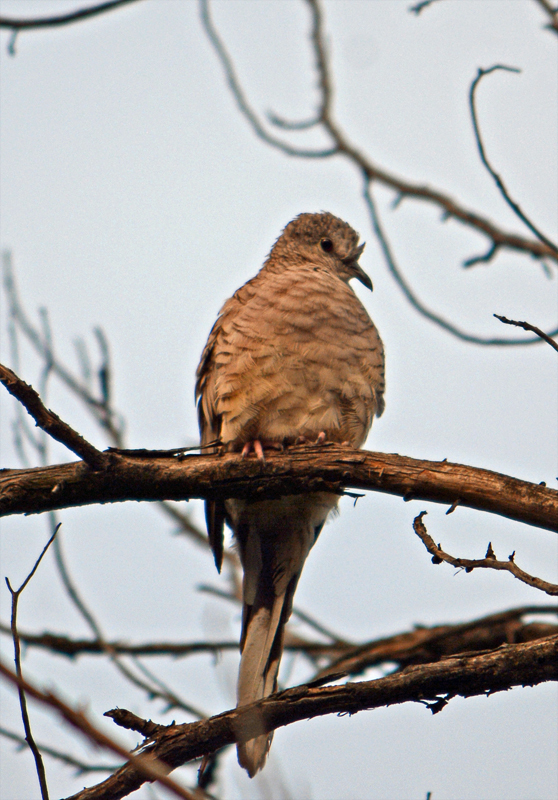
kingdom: Animalia
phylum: Chordata
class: Aves
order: Columbiformes
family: Columbidae
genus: Columbina
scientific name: Columbina inca
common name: Inca dove
